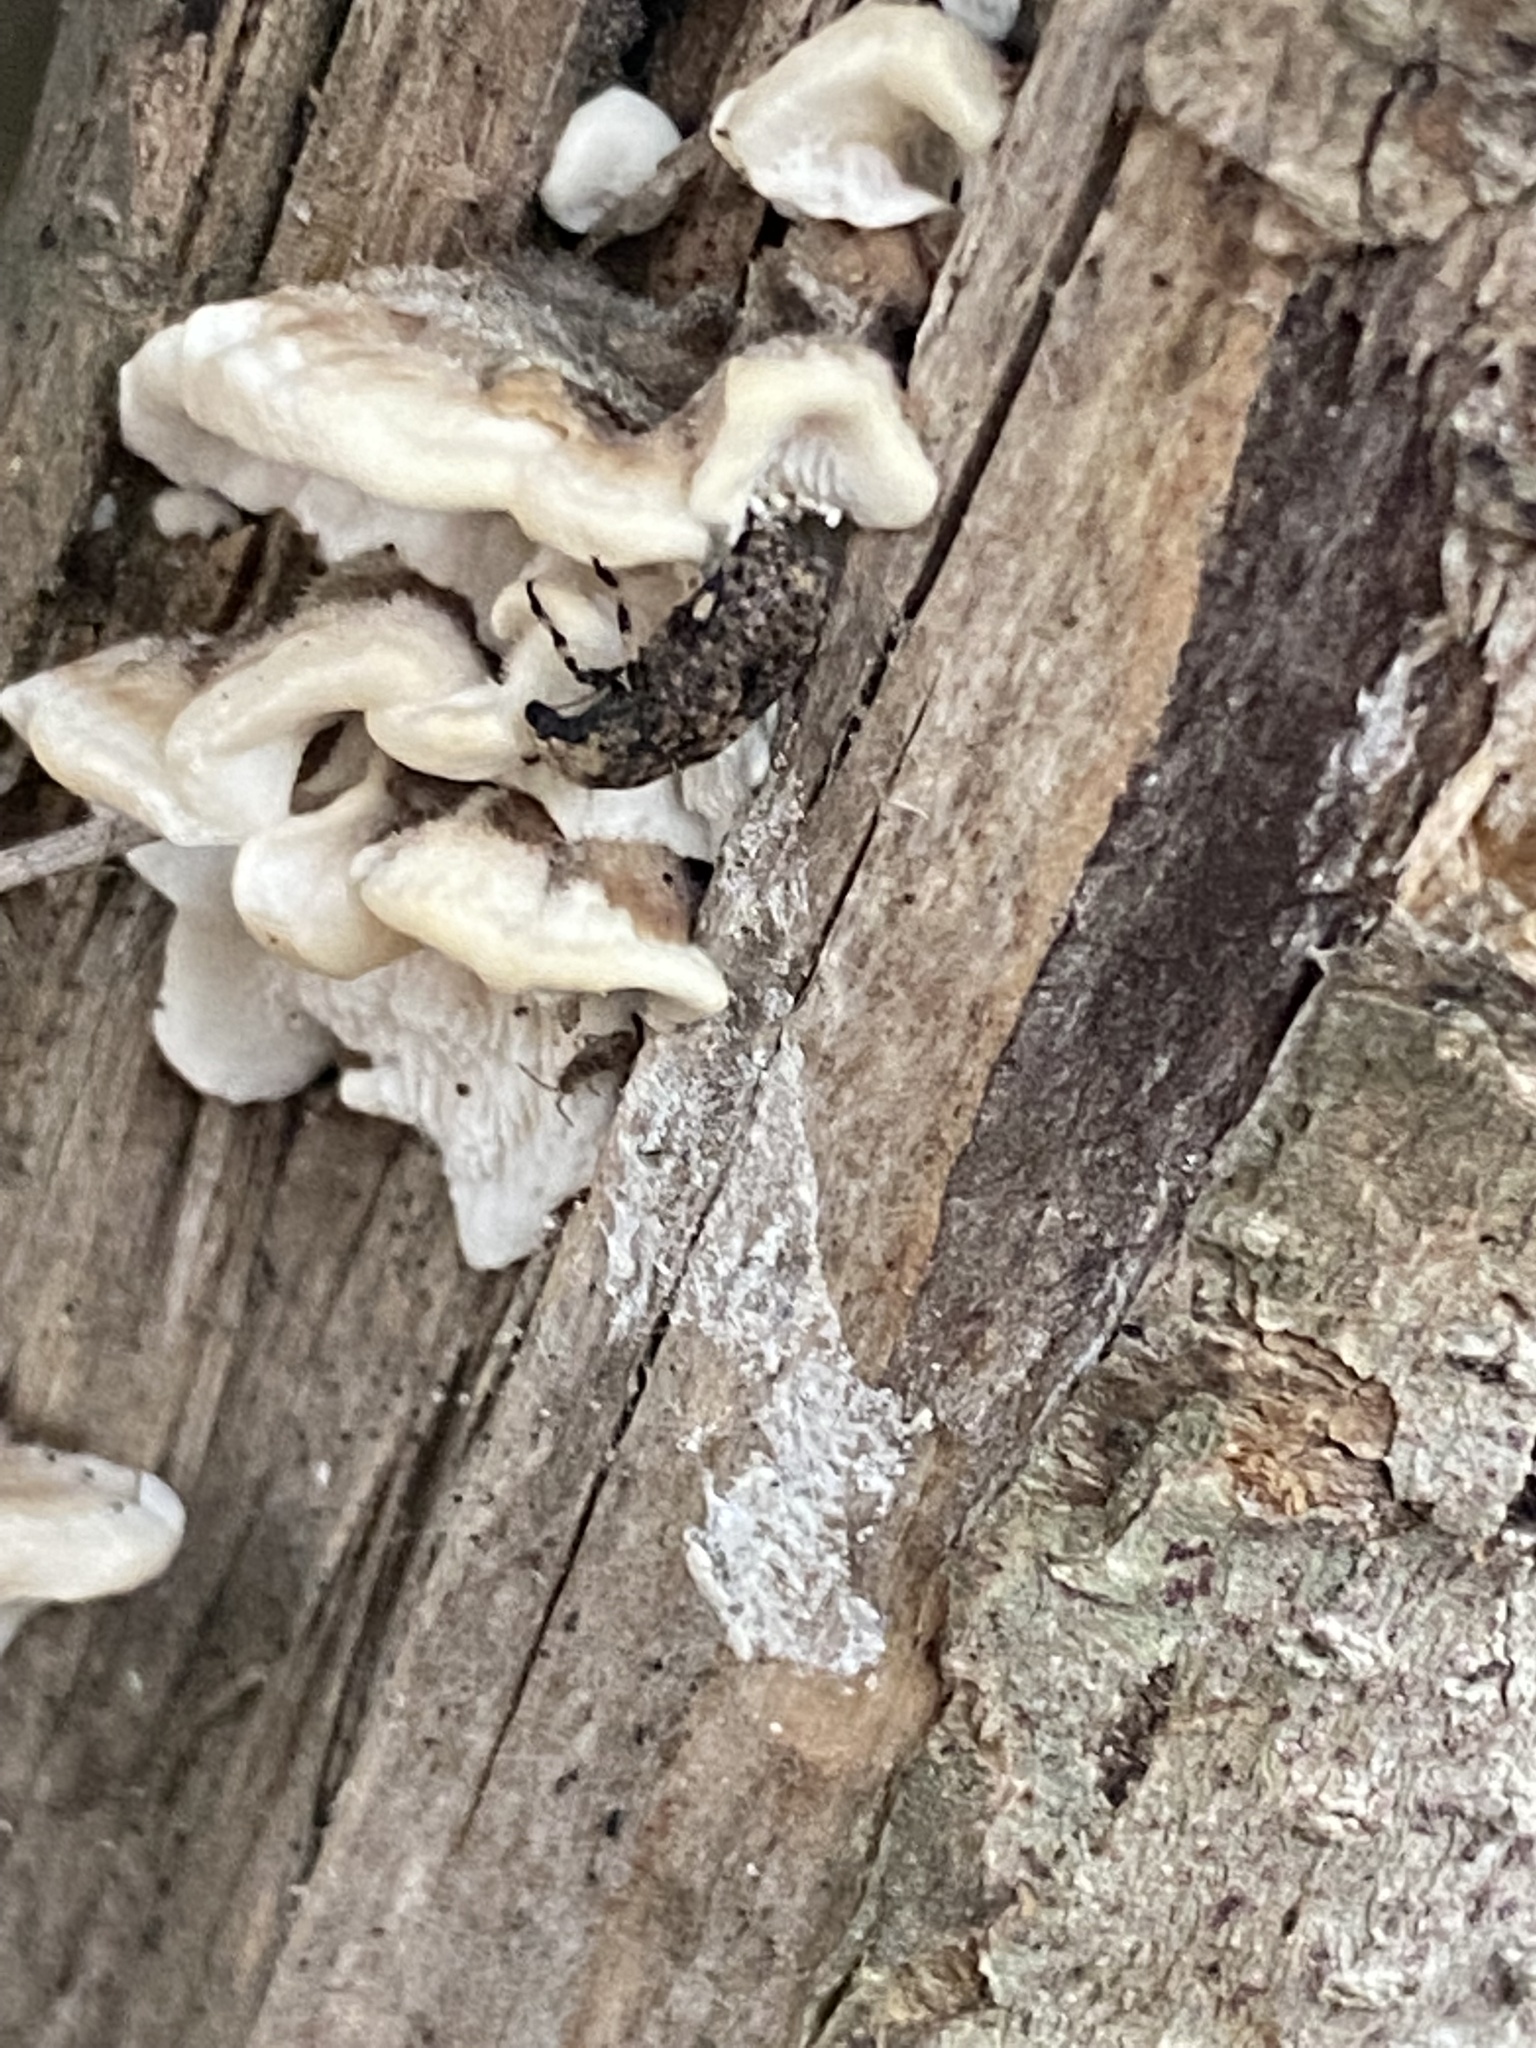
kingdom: Animalia
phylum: Arthropoda
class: Insecta
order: Coleoptera
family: Anthribidae
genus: Euparius
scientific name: Euparius marmoreus
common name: Marbled fungus weevil
